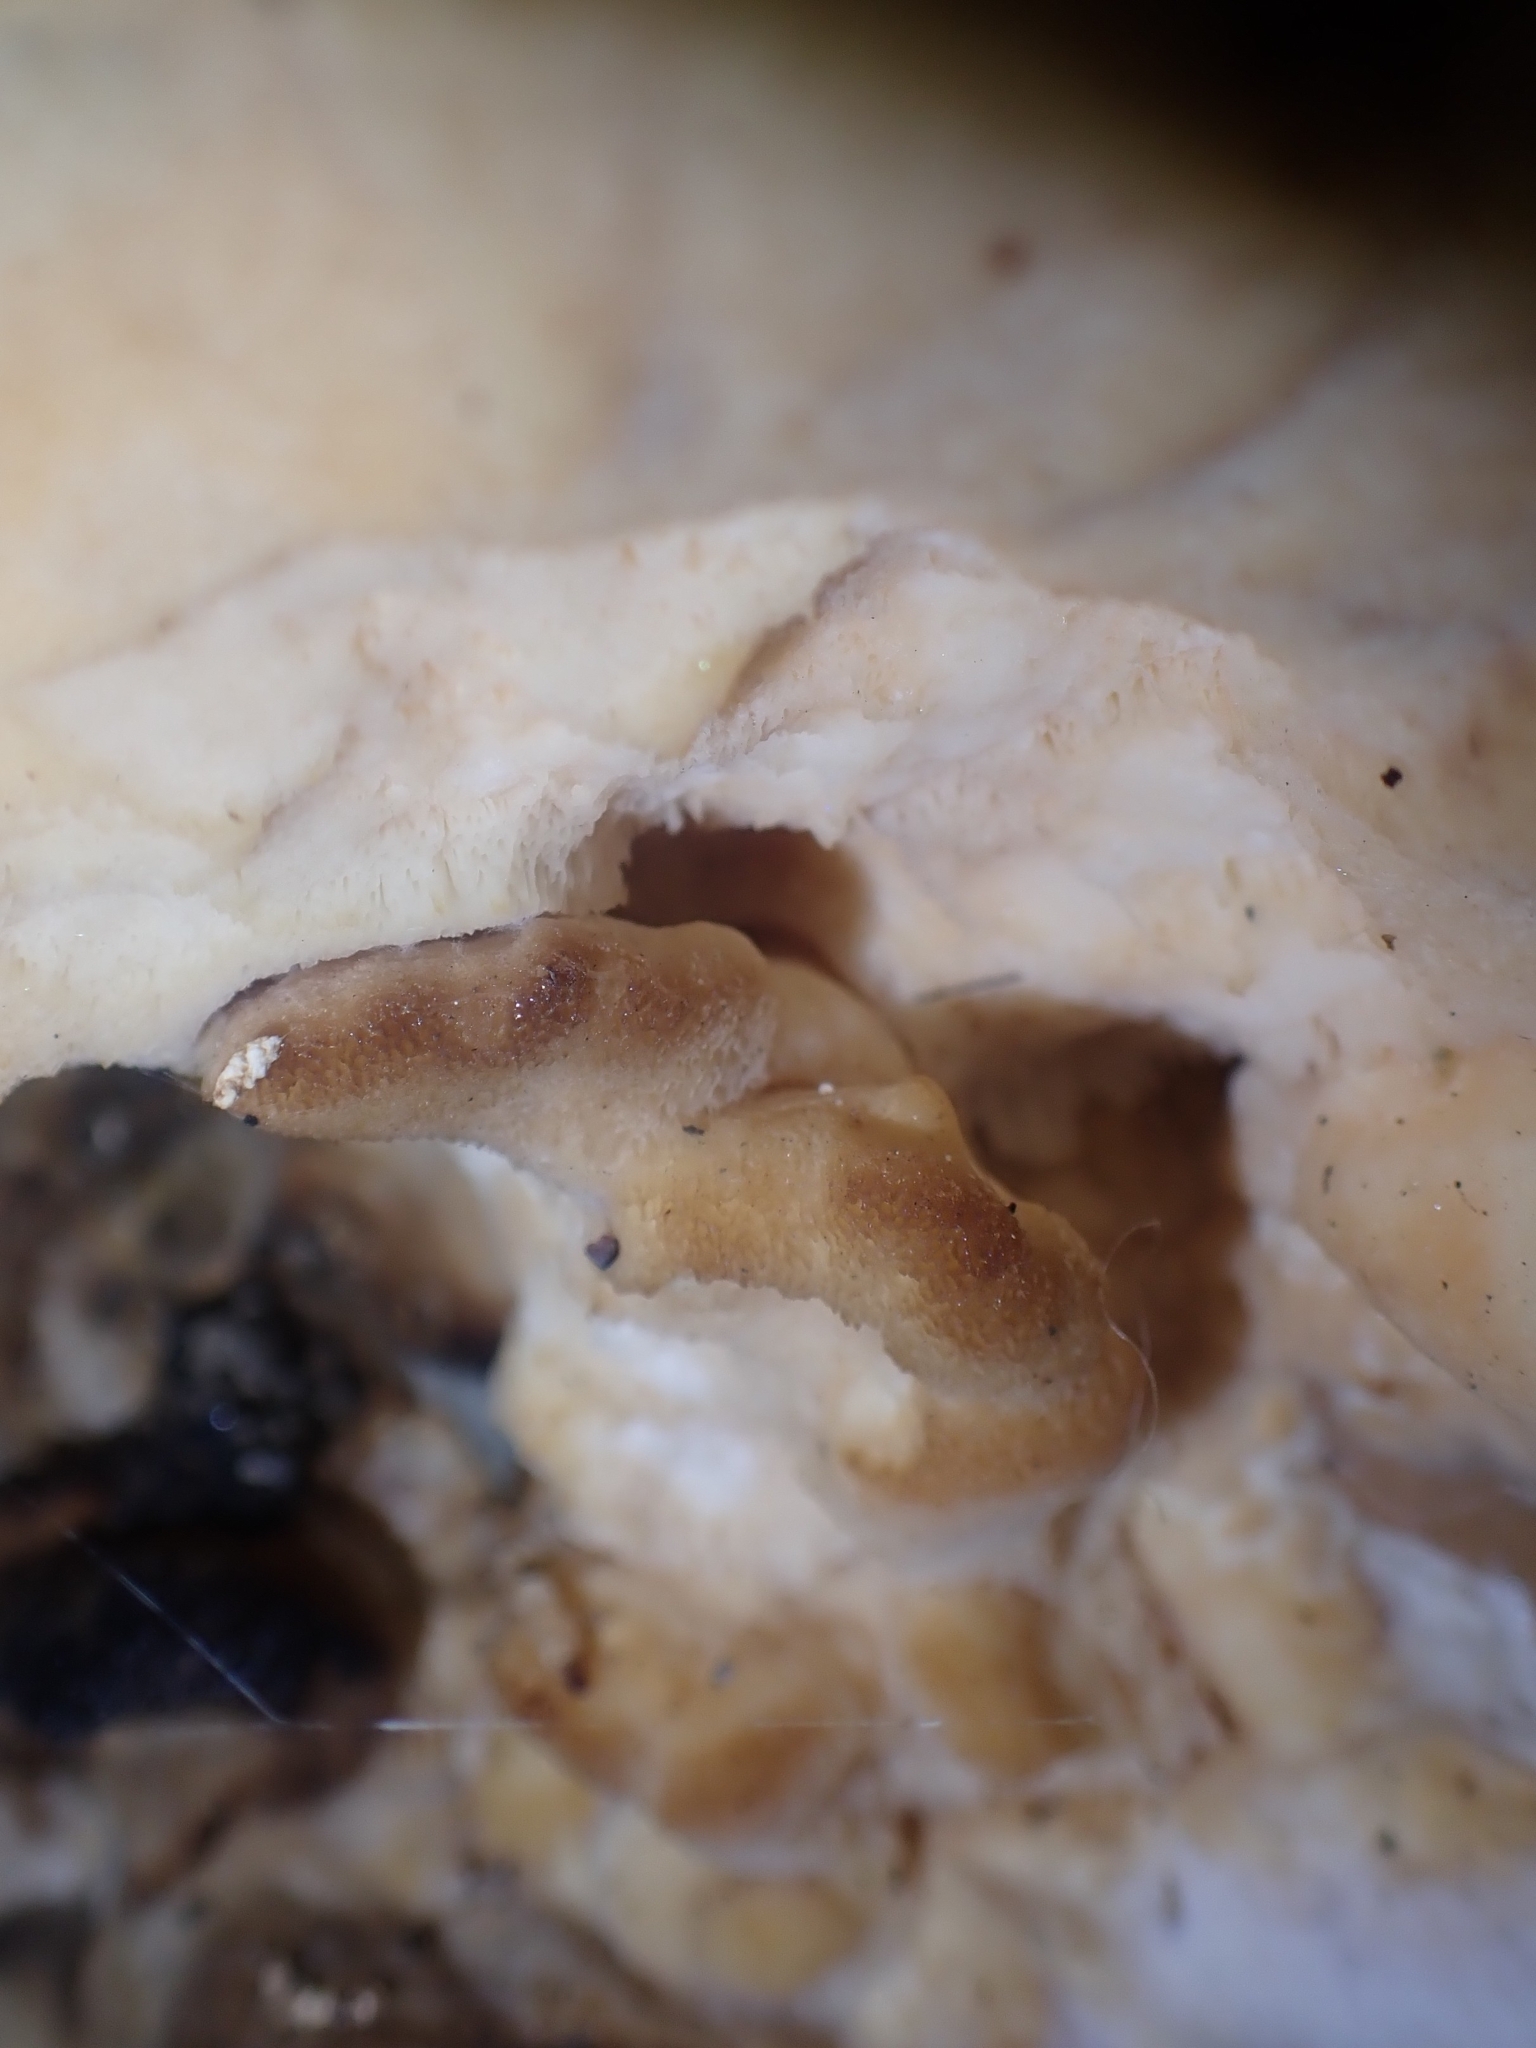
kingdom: Fungi
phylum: Basidiomycota
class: Agaricomycetes
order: Polyporales
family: Laetiporaceae
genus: Laetiporus
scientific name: Laetiporus sulphureus
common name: Chicken of the woods
